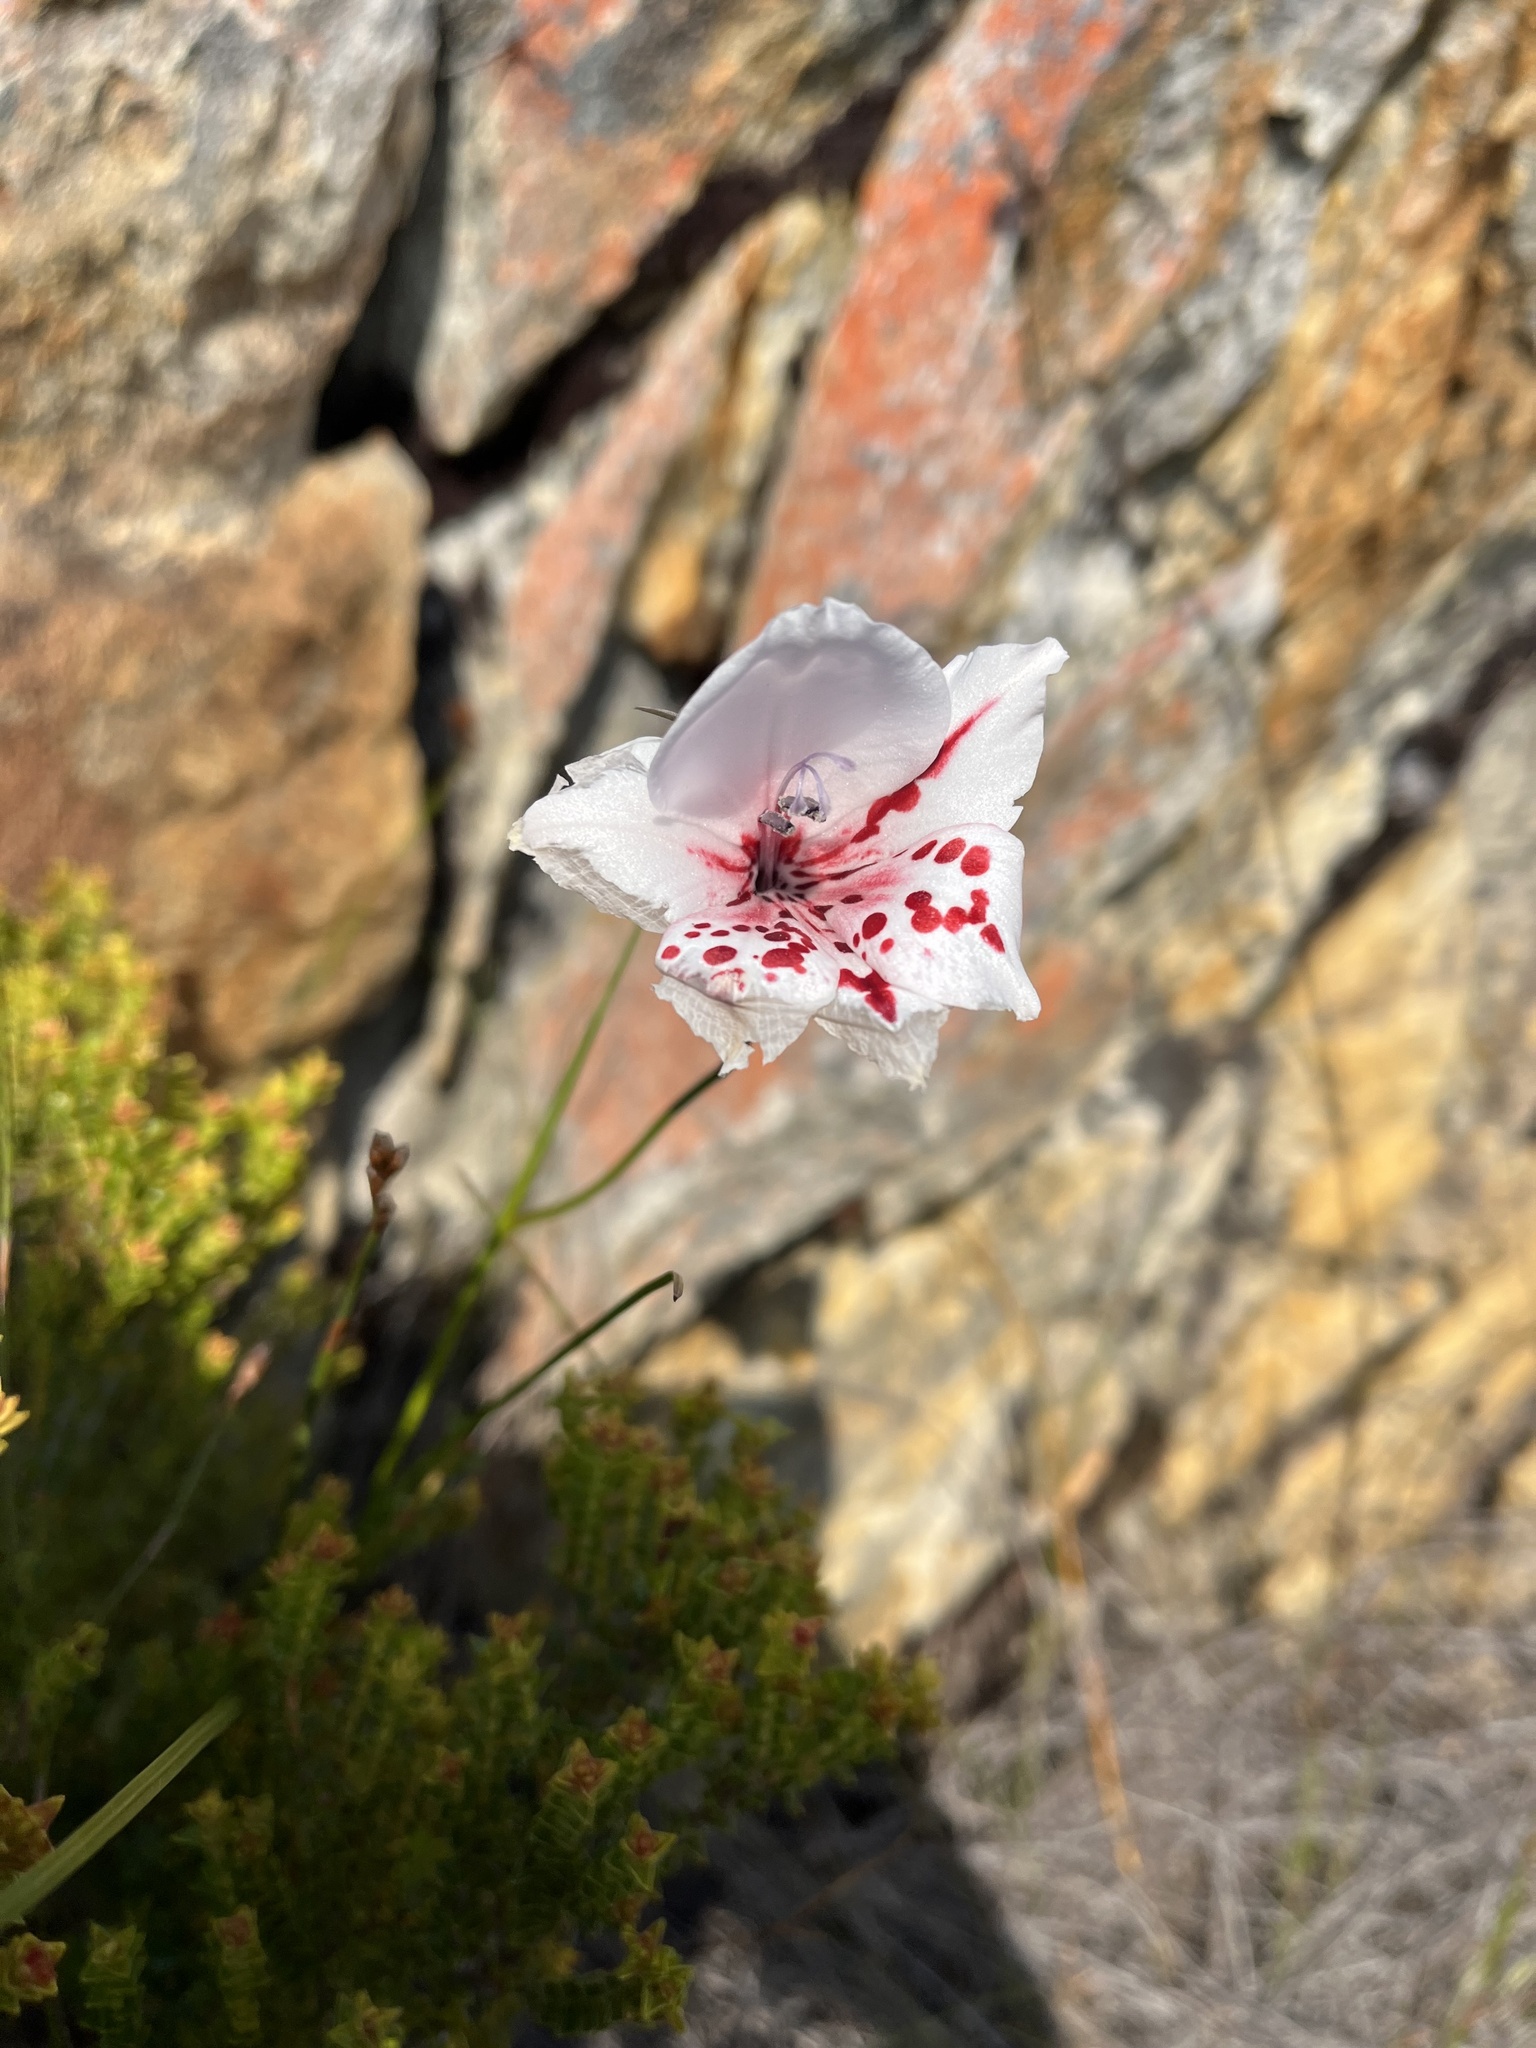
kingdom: Plantae
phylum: Tracheophyta
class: Liliopsida
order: Asparagales
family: Iridaceae
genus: Gladiolus
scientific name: Gladiolus variegatus
